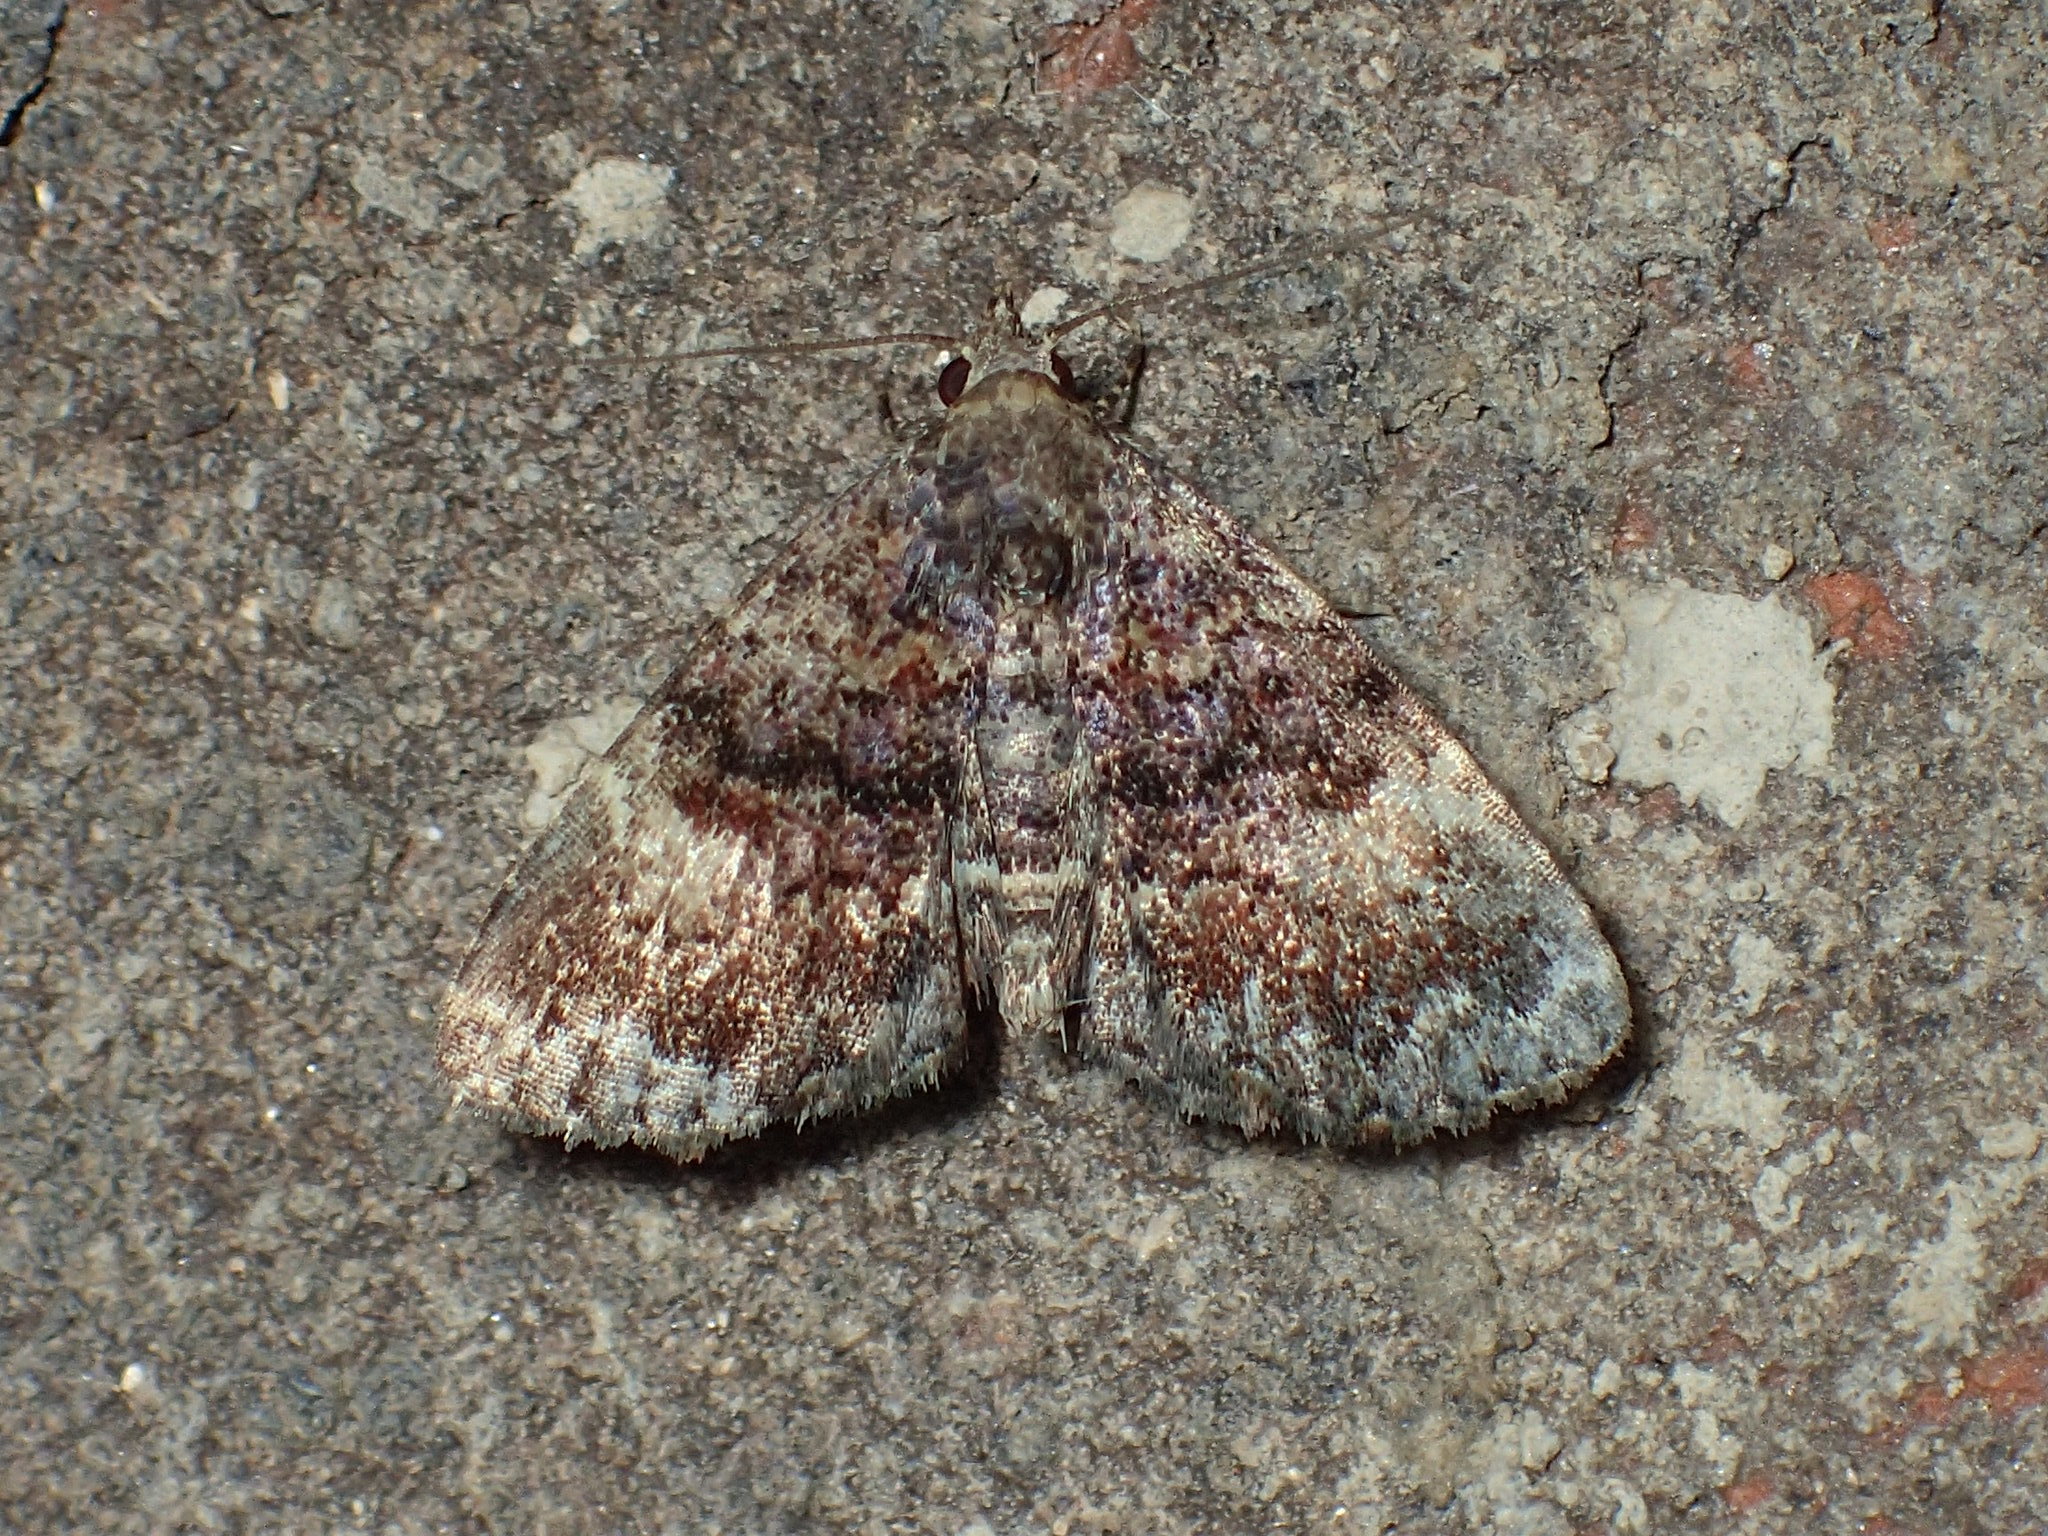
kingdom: Animalia
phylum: Arthropoda
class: Insecta
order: Lepidoptera
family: Erebidae
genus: Metalectra
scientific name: Metalectra richardsi
